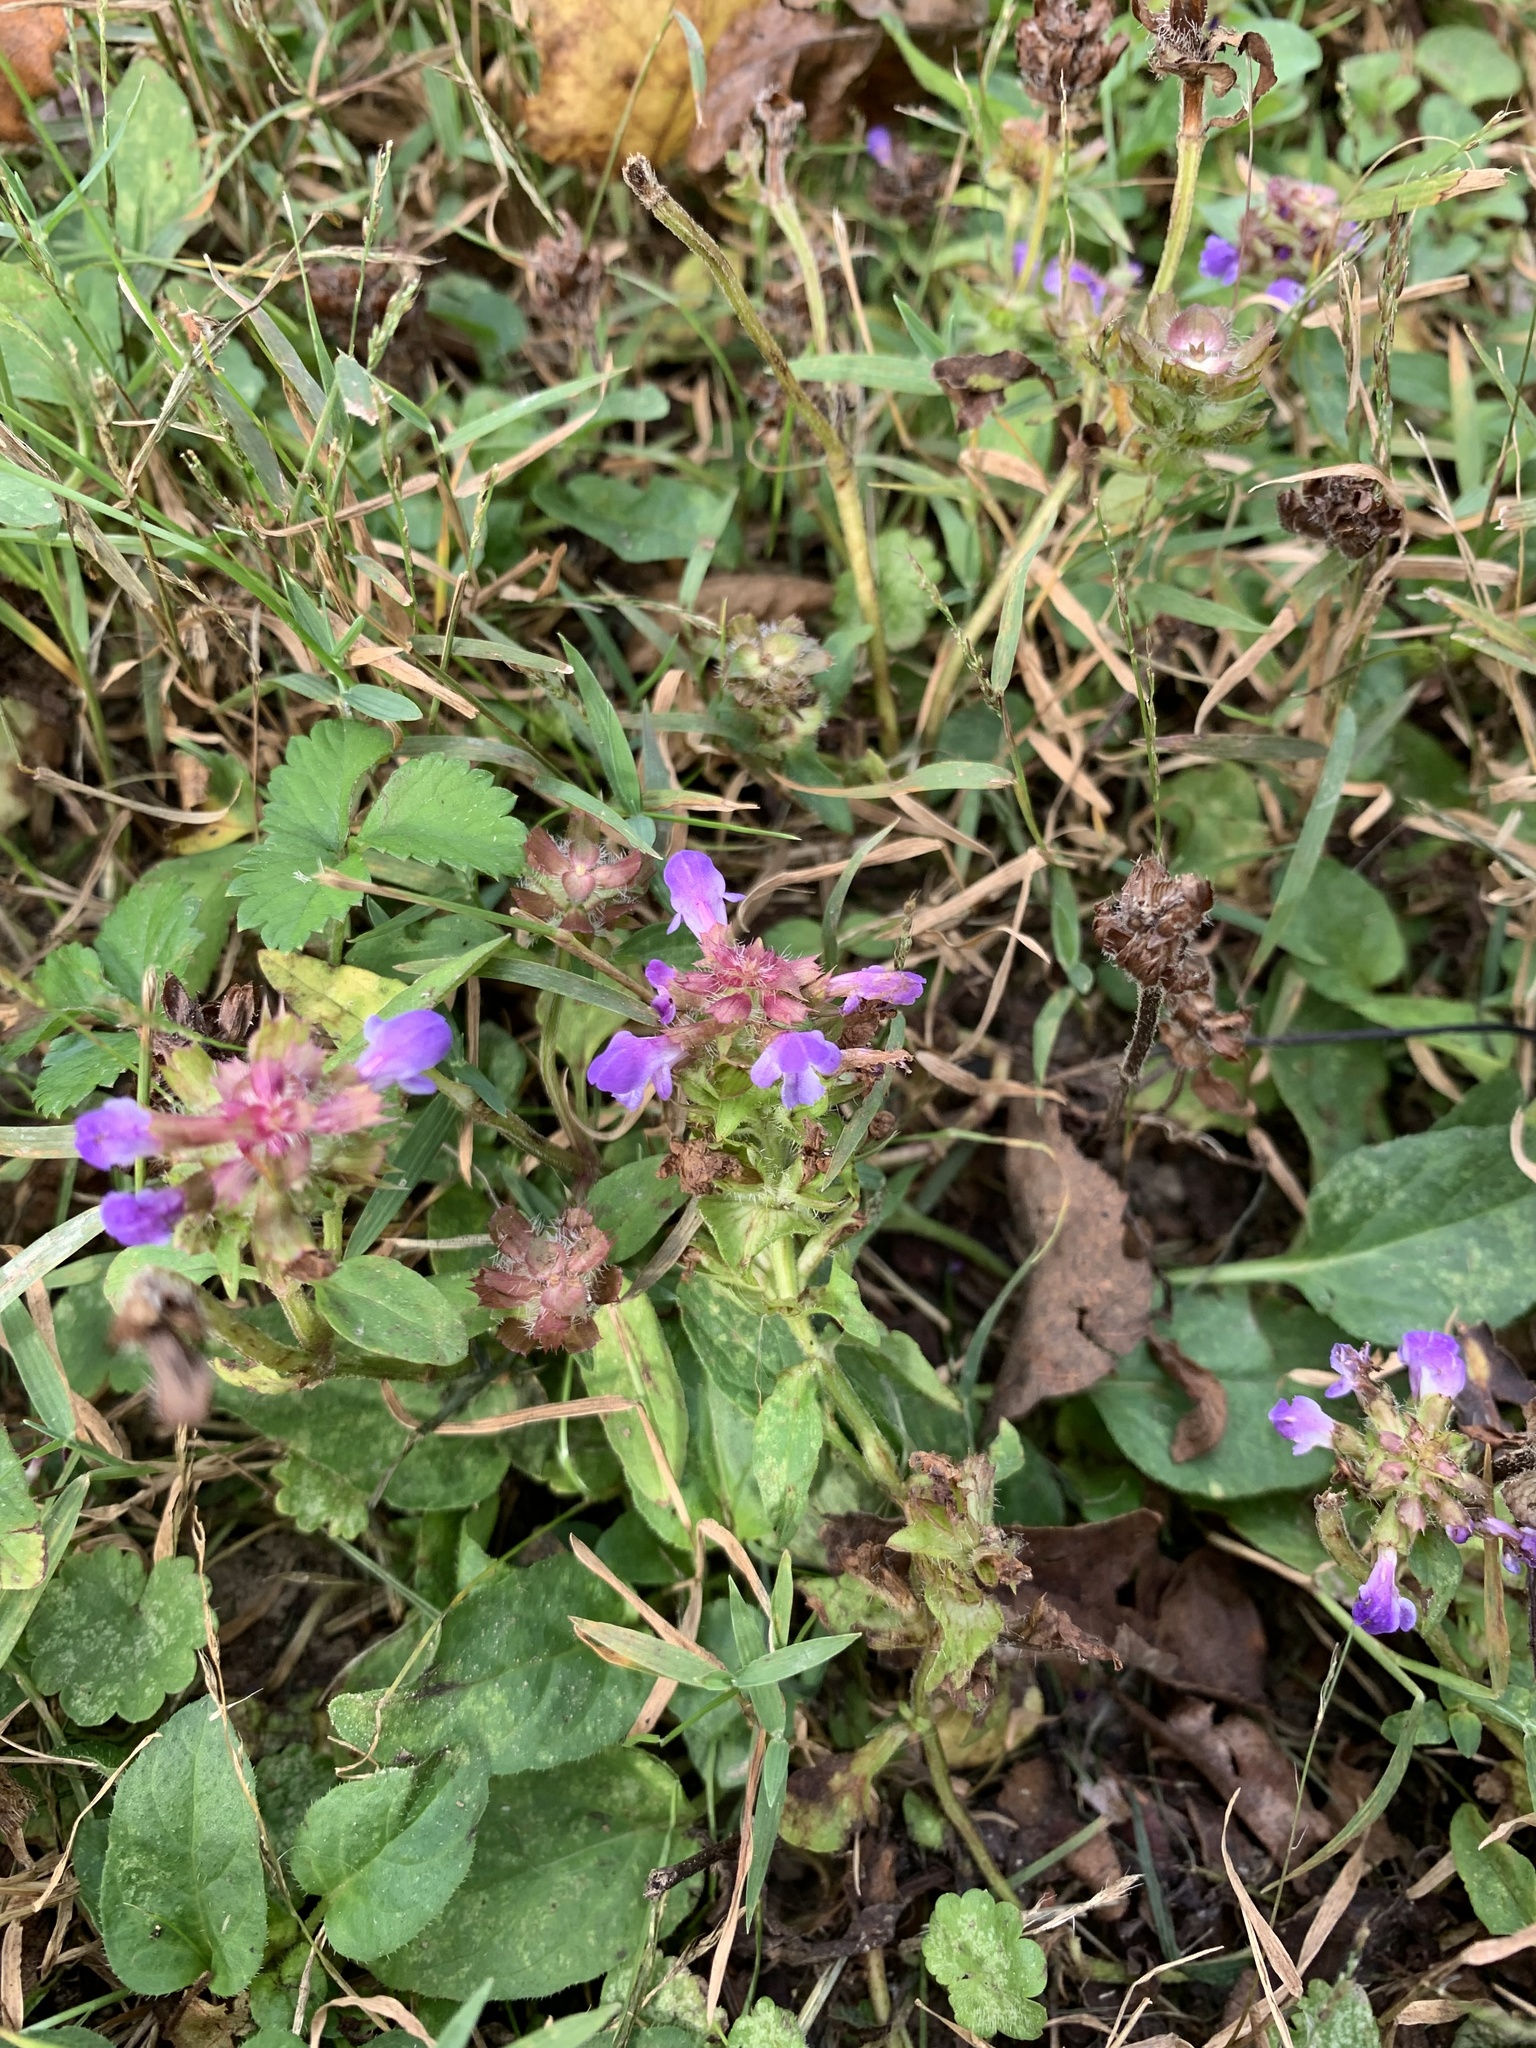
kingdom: Plantae
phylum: Tracheophyta
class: Magnoliopsida
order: Lamiales
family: Lamiaceae
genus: Prunella
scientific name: Prunella vulgaris
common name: Heal-all
